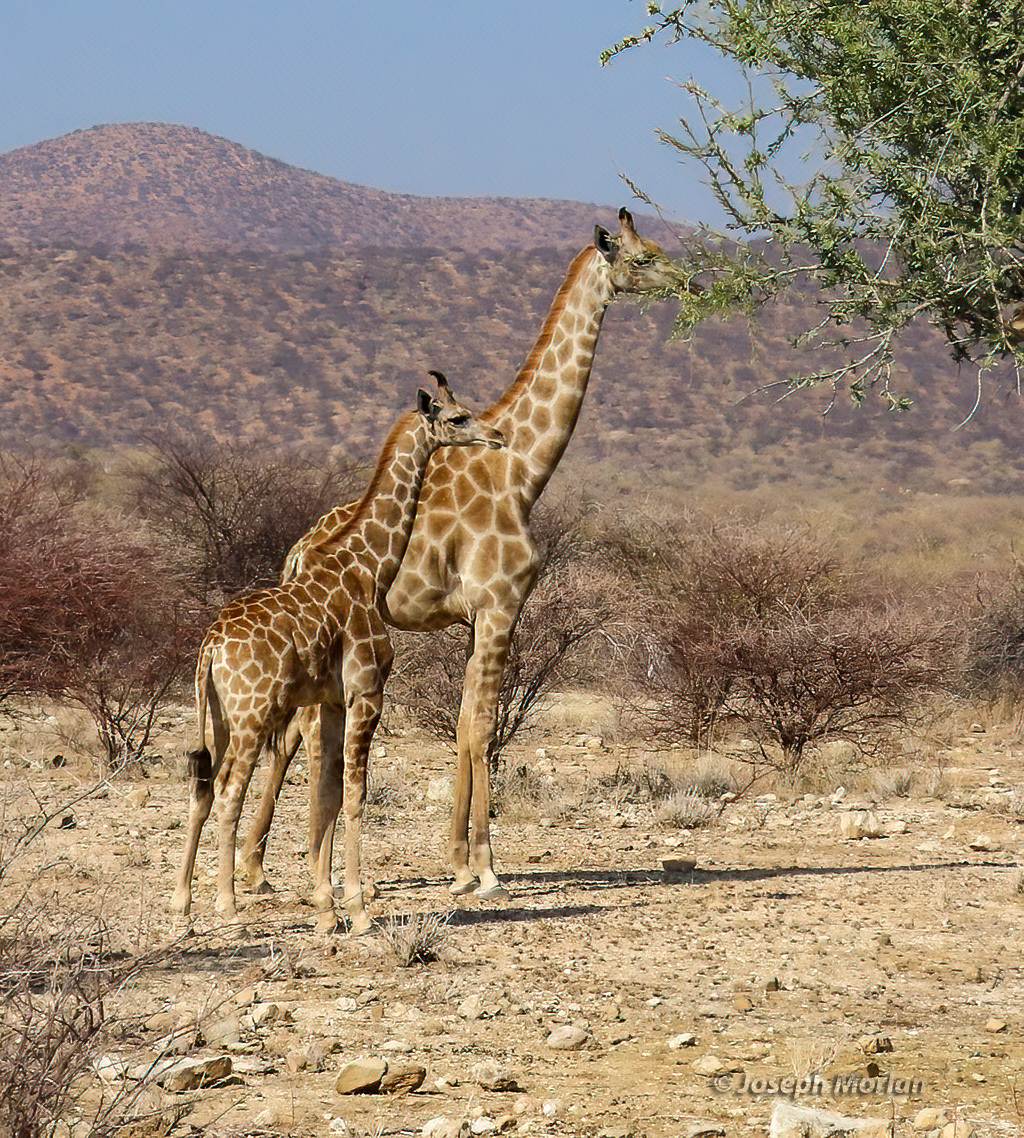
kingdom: Animalia
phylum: Chordata
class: Mammalia
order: Artiodactyla
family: Giraffidae
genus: Giraffa
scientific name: Giraffa giraffa
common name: Southern giraffe
